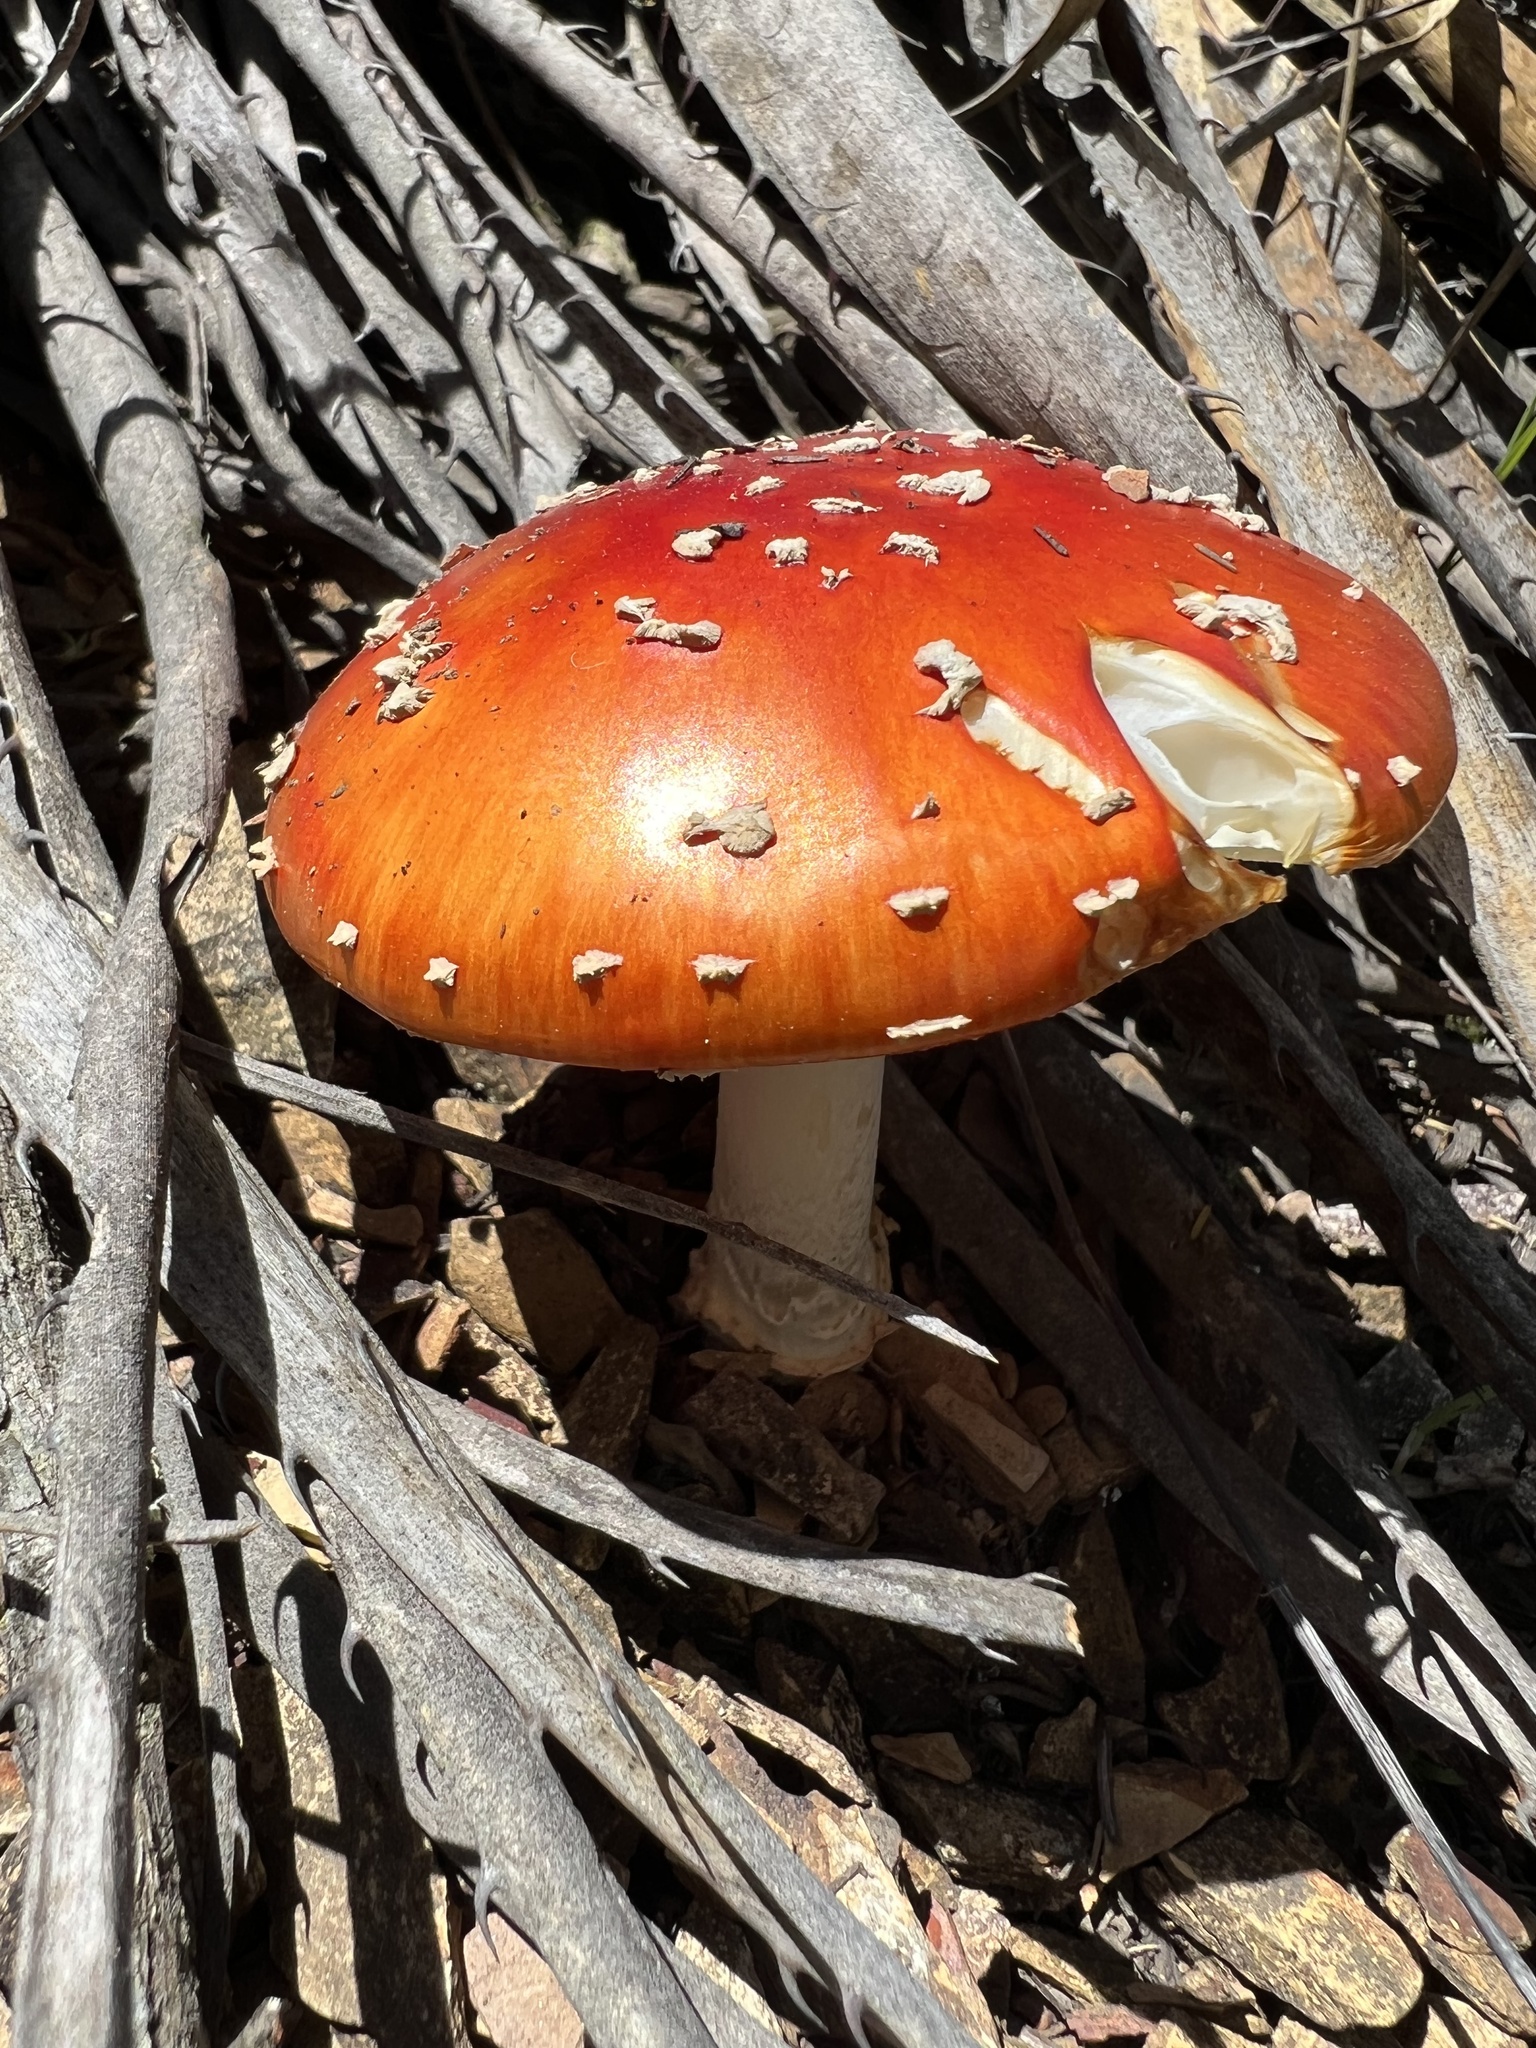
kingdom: Fungi
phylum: Basidiomycota
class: Agaricomycetes
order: Agaricales
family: Amanitaceae
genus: Amanita
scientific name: Amanita muscaria
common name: Fly agaric
